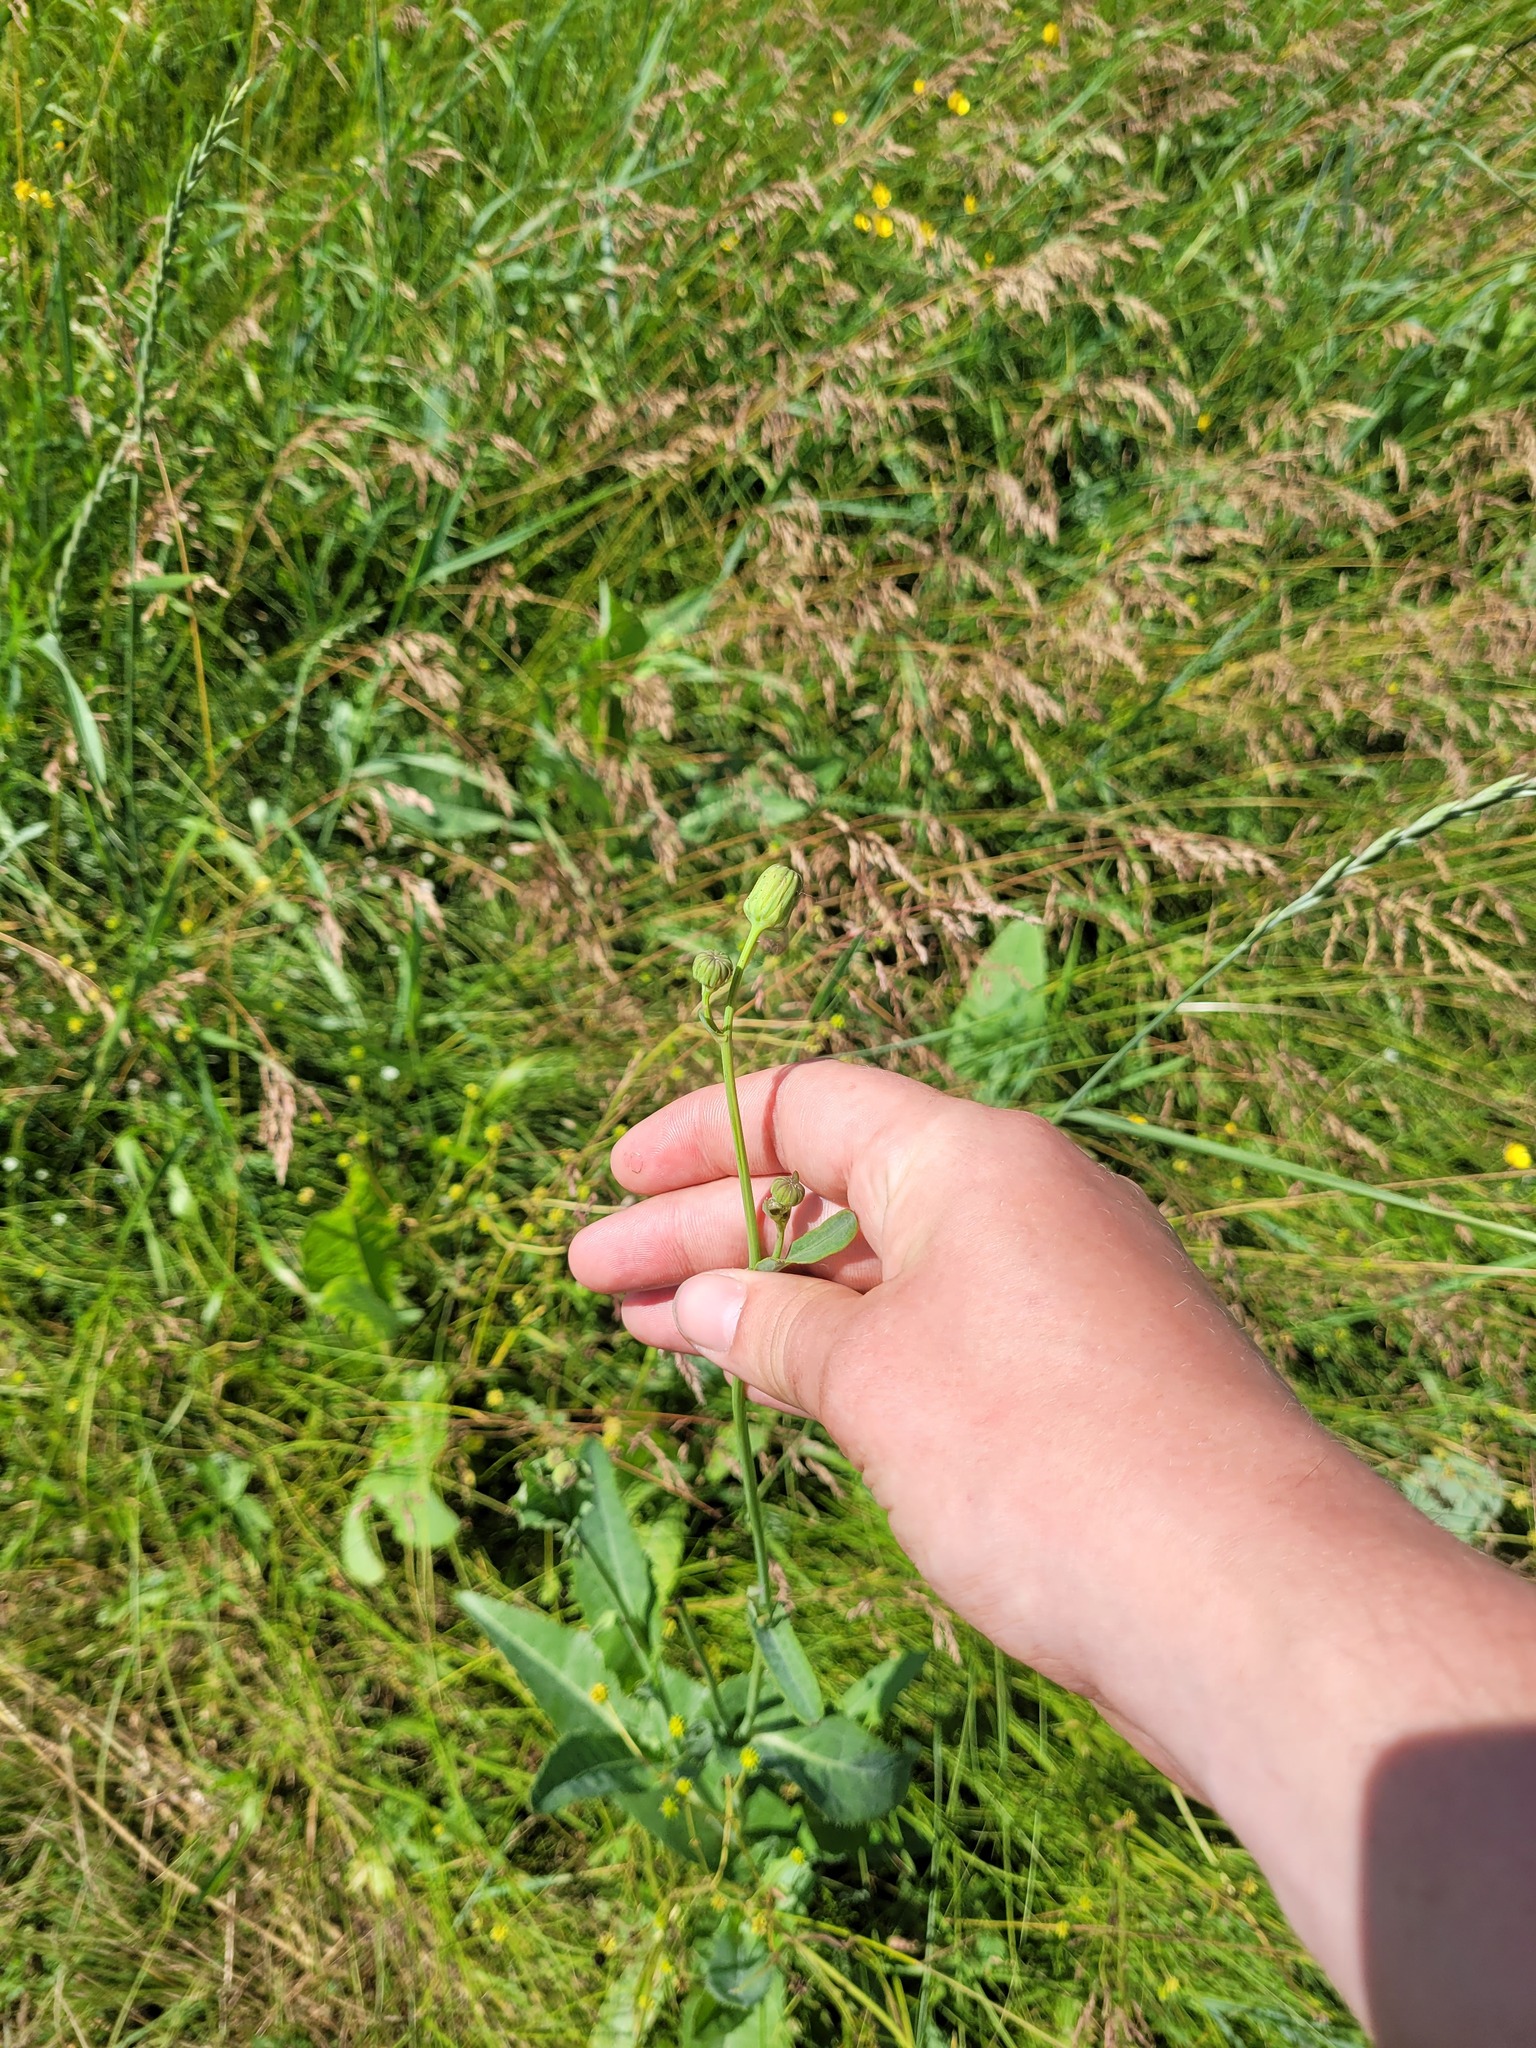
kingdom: Plantae
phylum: Tracheophyta
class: Magnoliopsida
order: Asterales
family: Asteraceae
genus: Sonchus
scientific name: Sonchus arvensis
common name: Perennial sow-thistle
